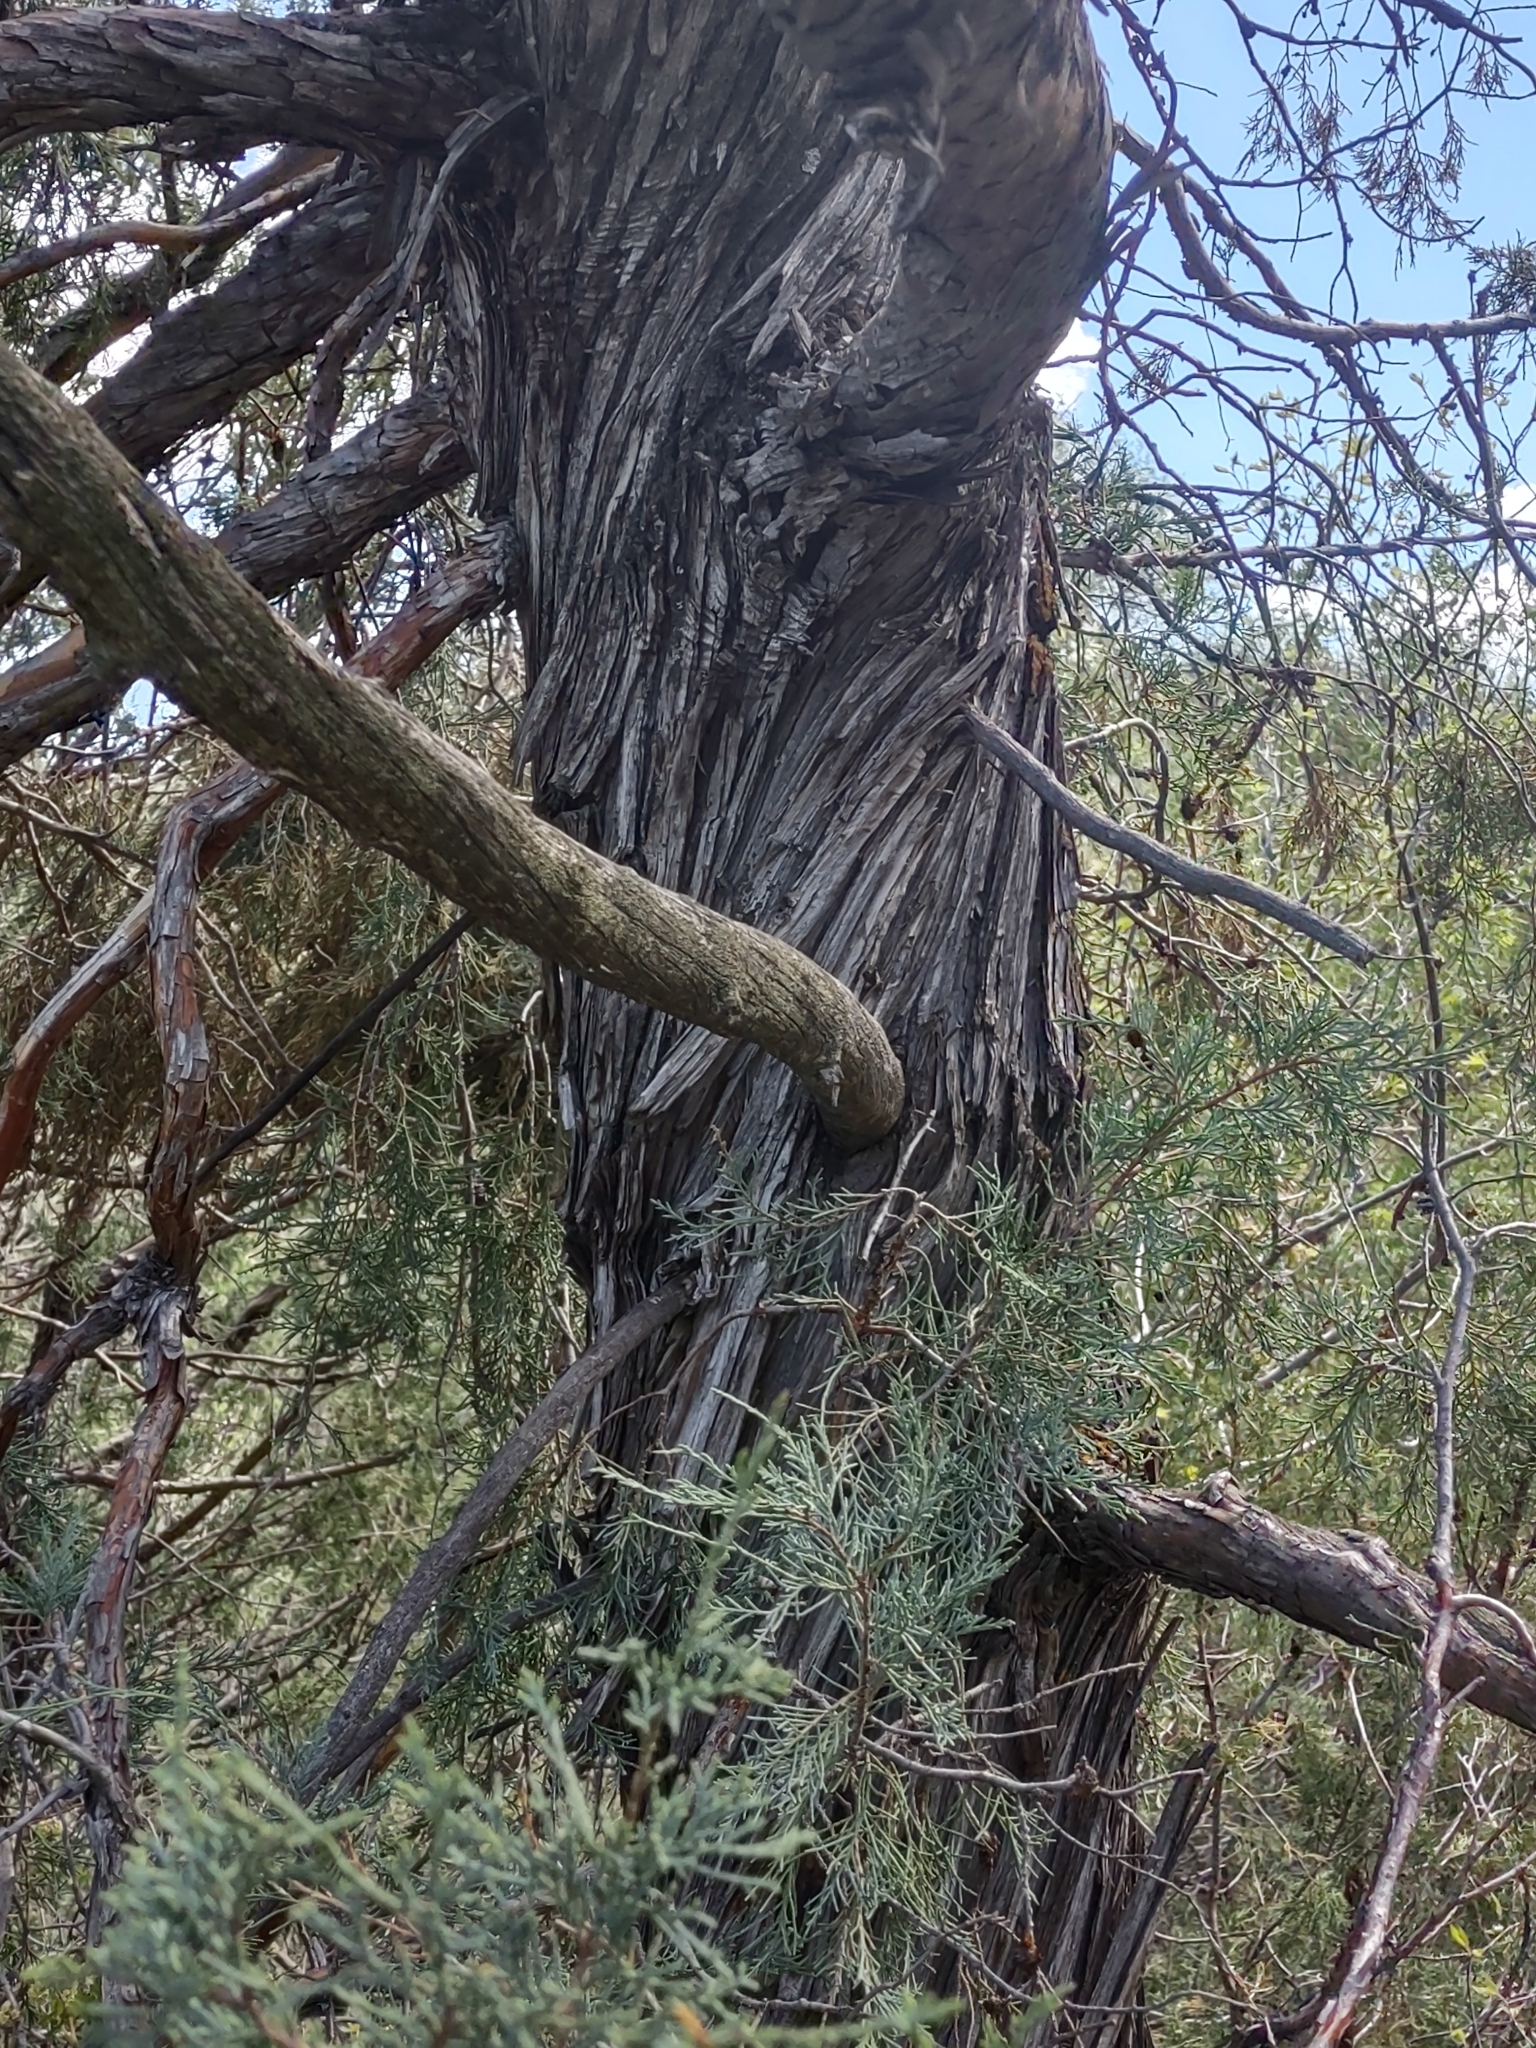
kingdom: Plantae
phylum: Tracheophyta
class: Pinopsida
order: Pinales
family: Cupressaceae
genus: Juniperus
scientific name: Juniperus scopulorum
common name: Rocky mountain juniper
